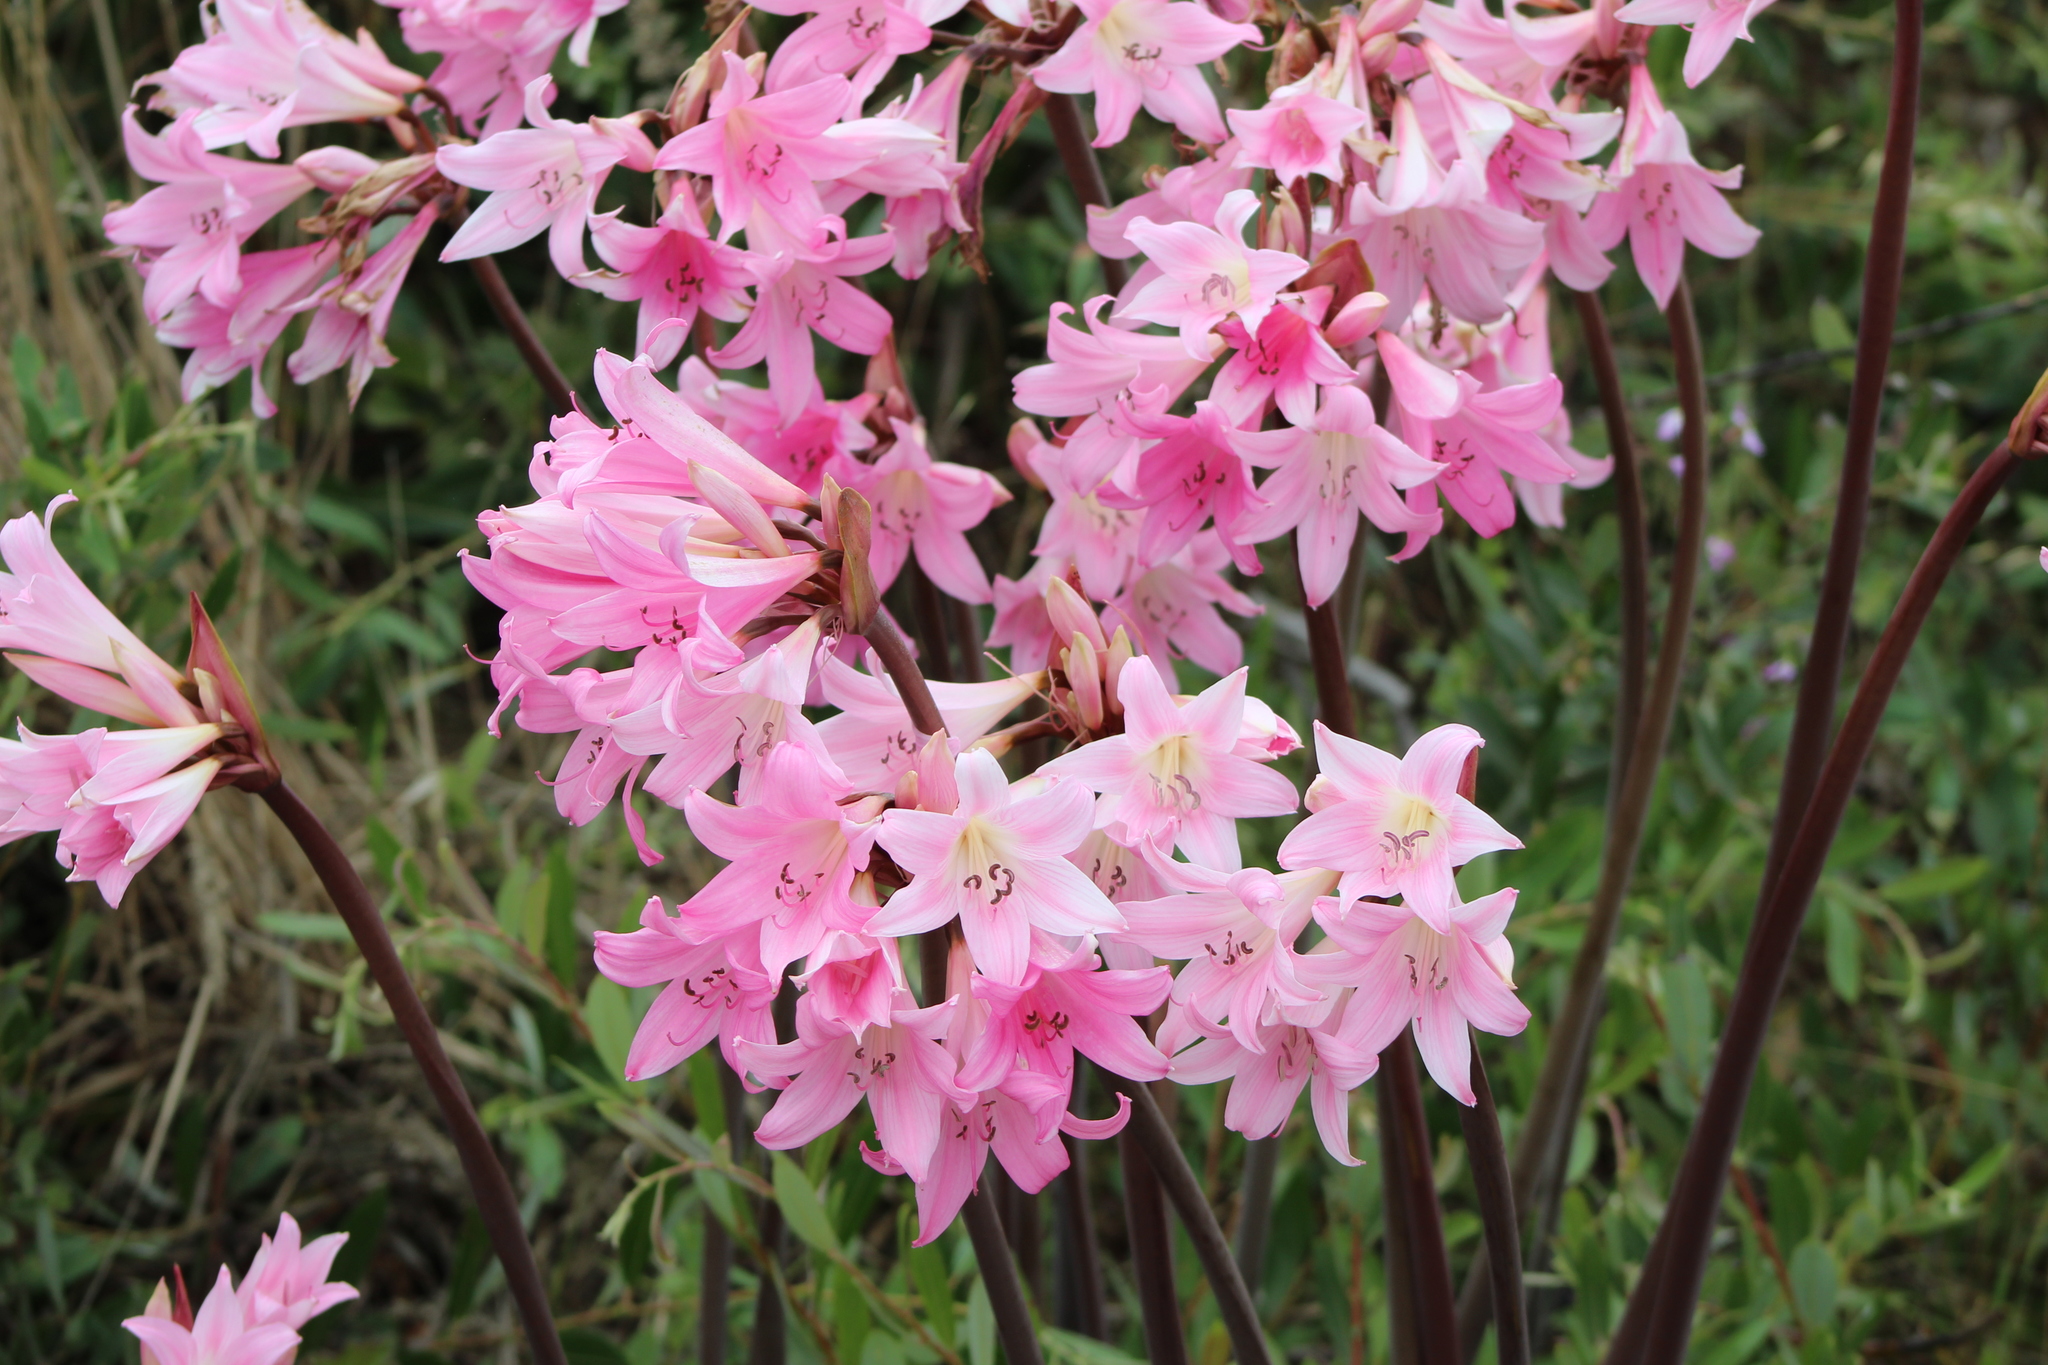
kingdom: Plantae
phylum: Tracheophyta
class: Liliopsida
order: Asparagales
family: Amaryllidaceae
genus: Amaryllis
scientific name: Amaryllis belladonna
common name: Jersey lily
